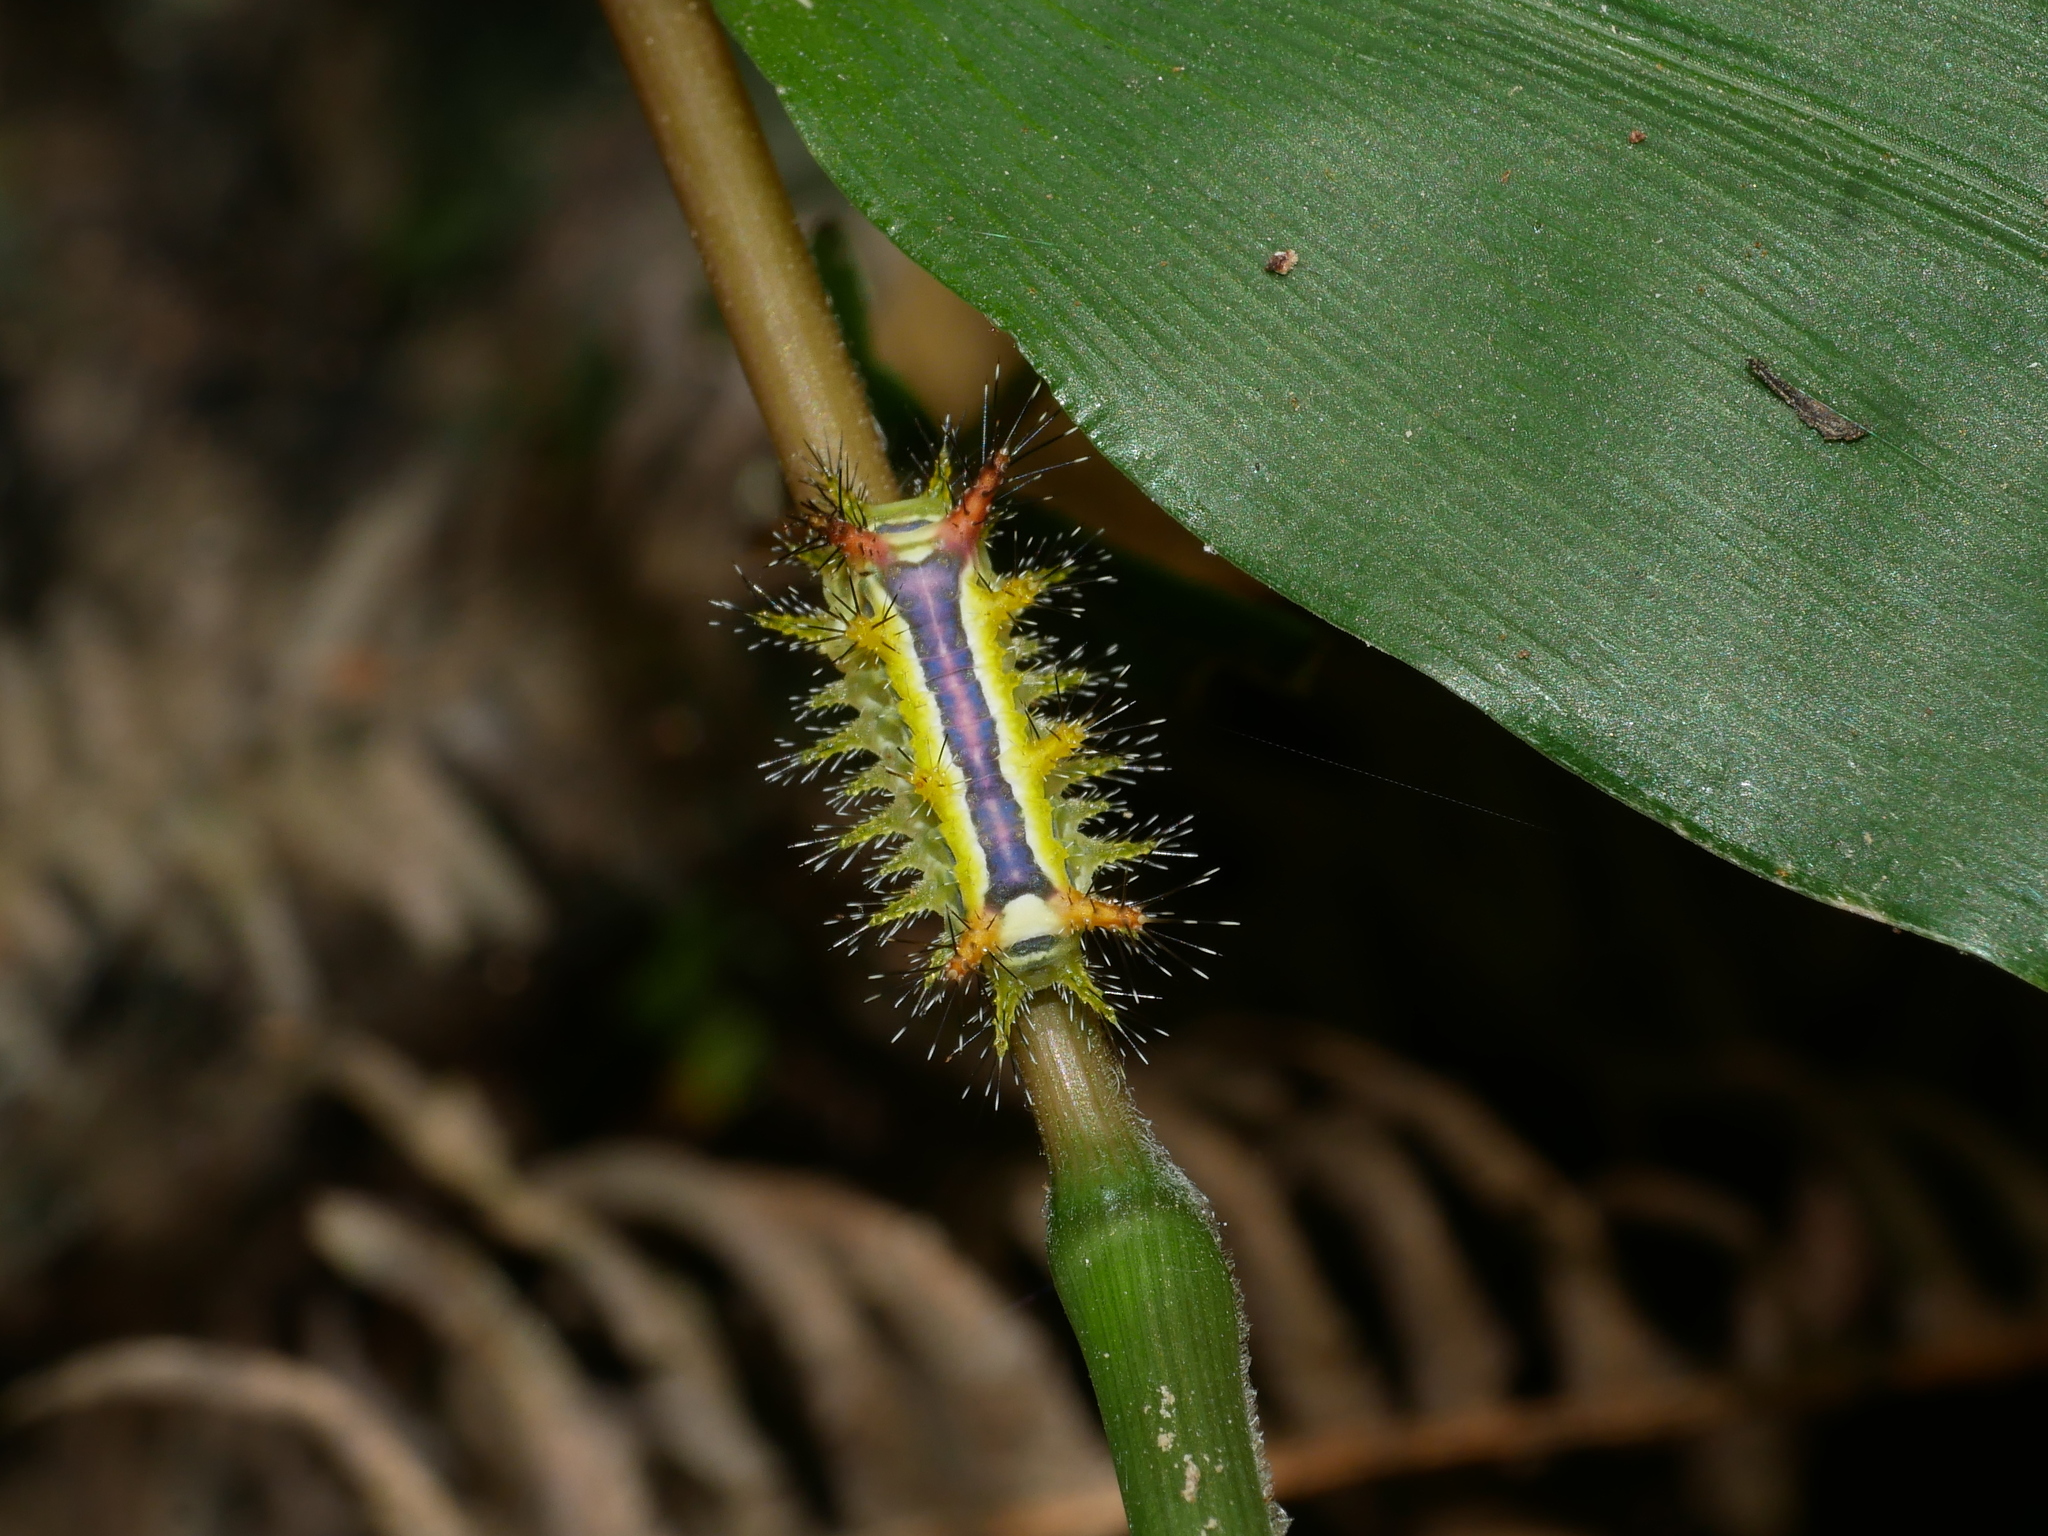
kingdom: Animalia
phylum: Arthropoda
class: Insecta
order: Lepidoptera
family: Limacodidae
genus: Birthamula
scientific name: Birthamula rufa
